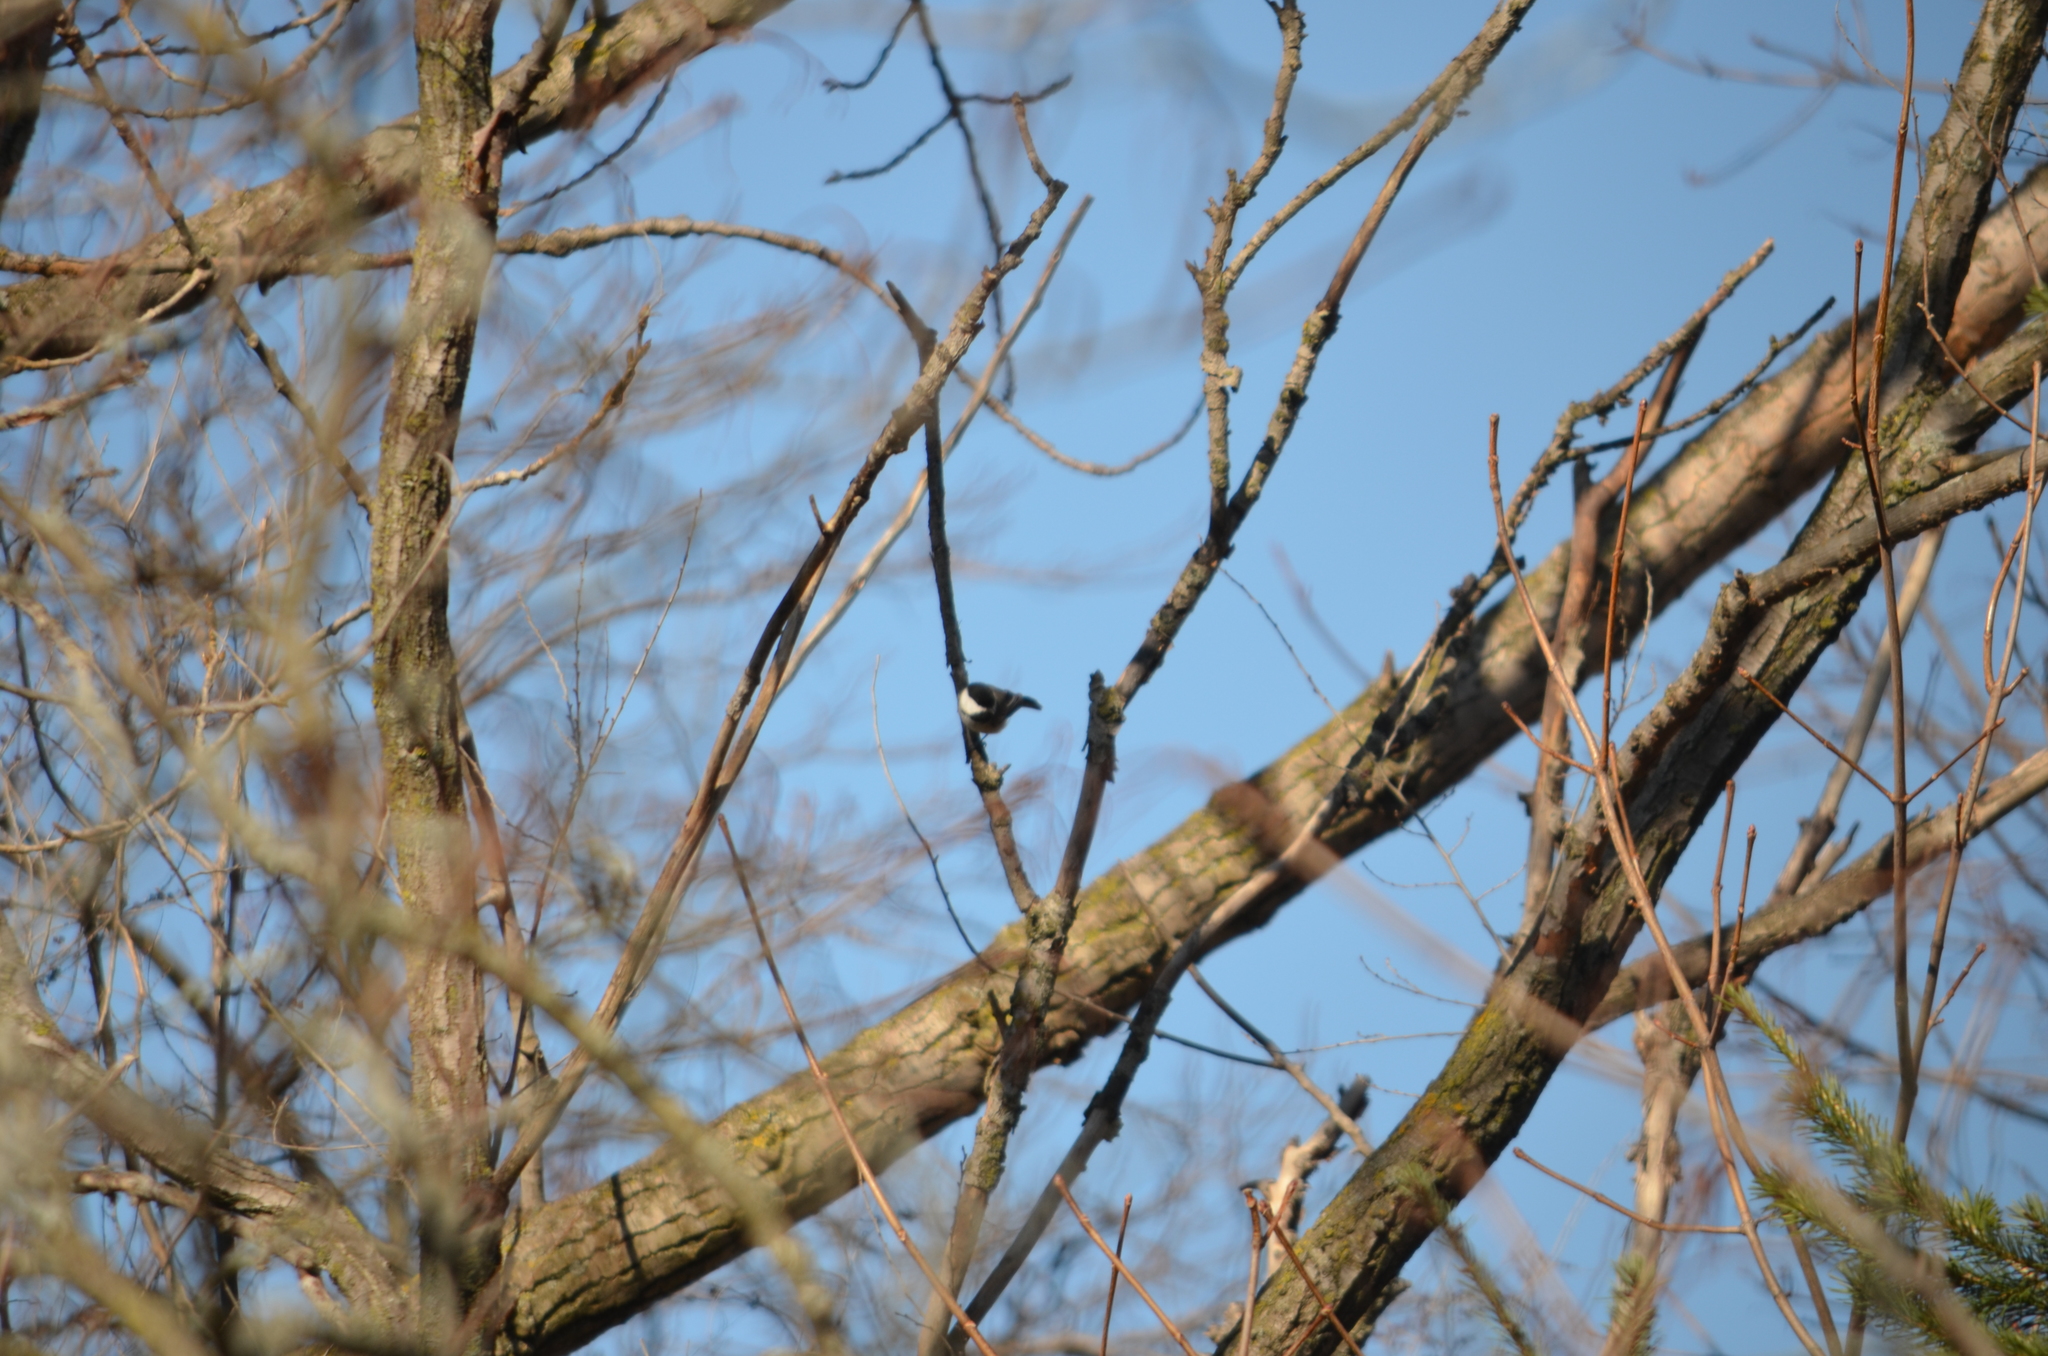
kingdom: Animalia
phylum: Chordata
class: Aves
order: Passeriformes
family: Paridae
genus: Poecile
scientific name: Poecile atricapillus
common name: Black-capped chickadee
